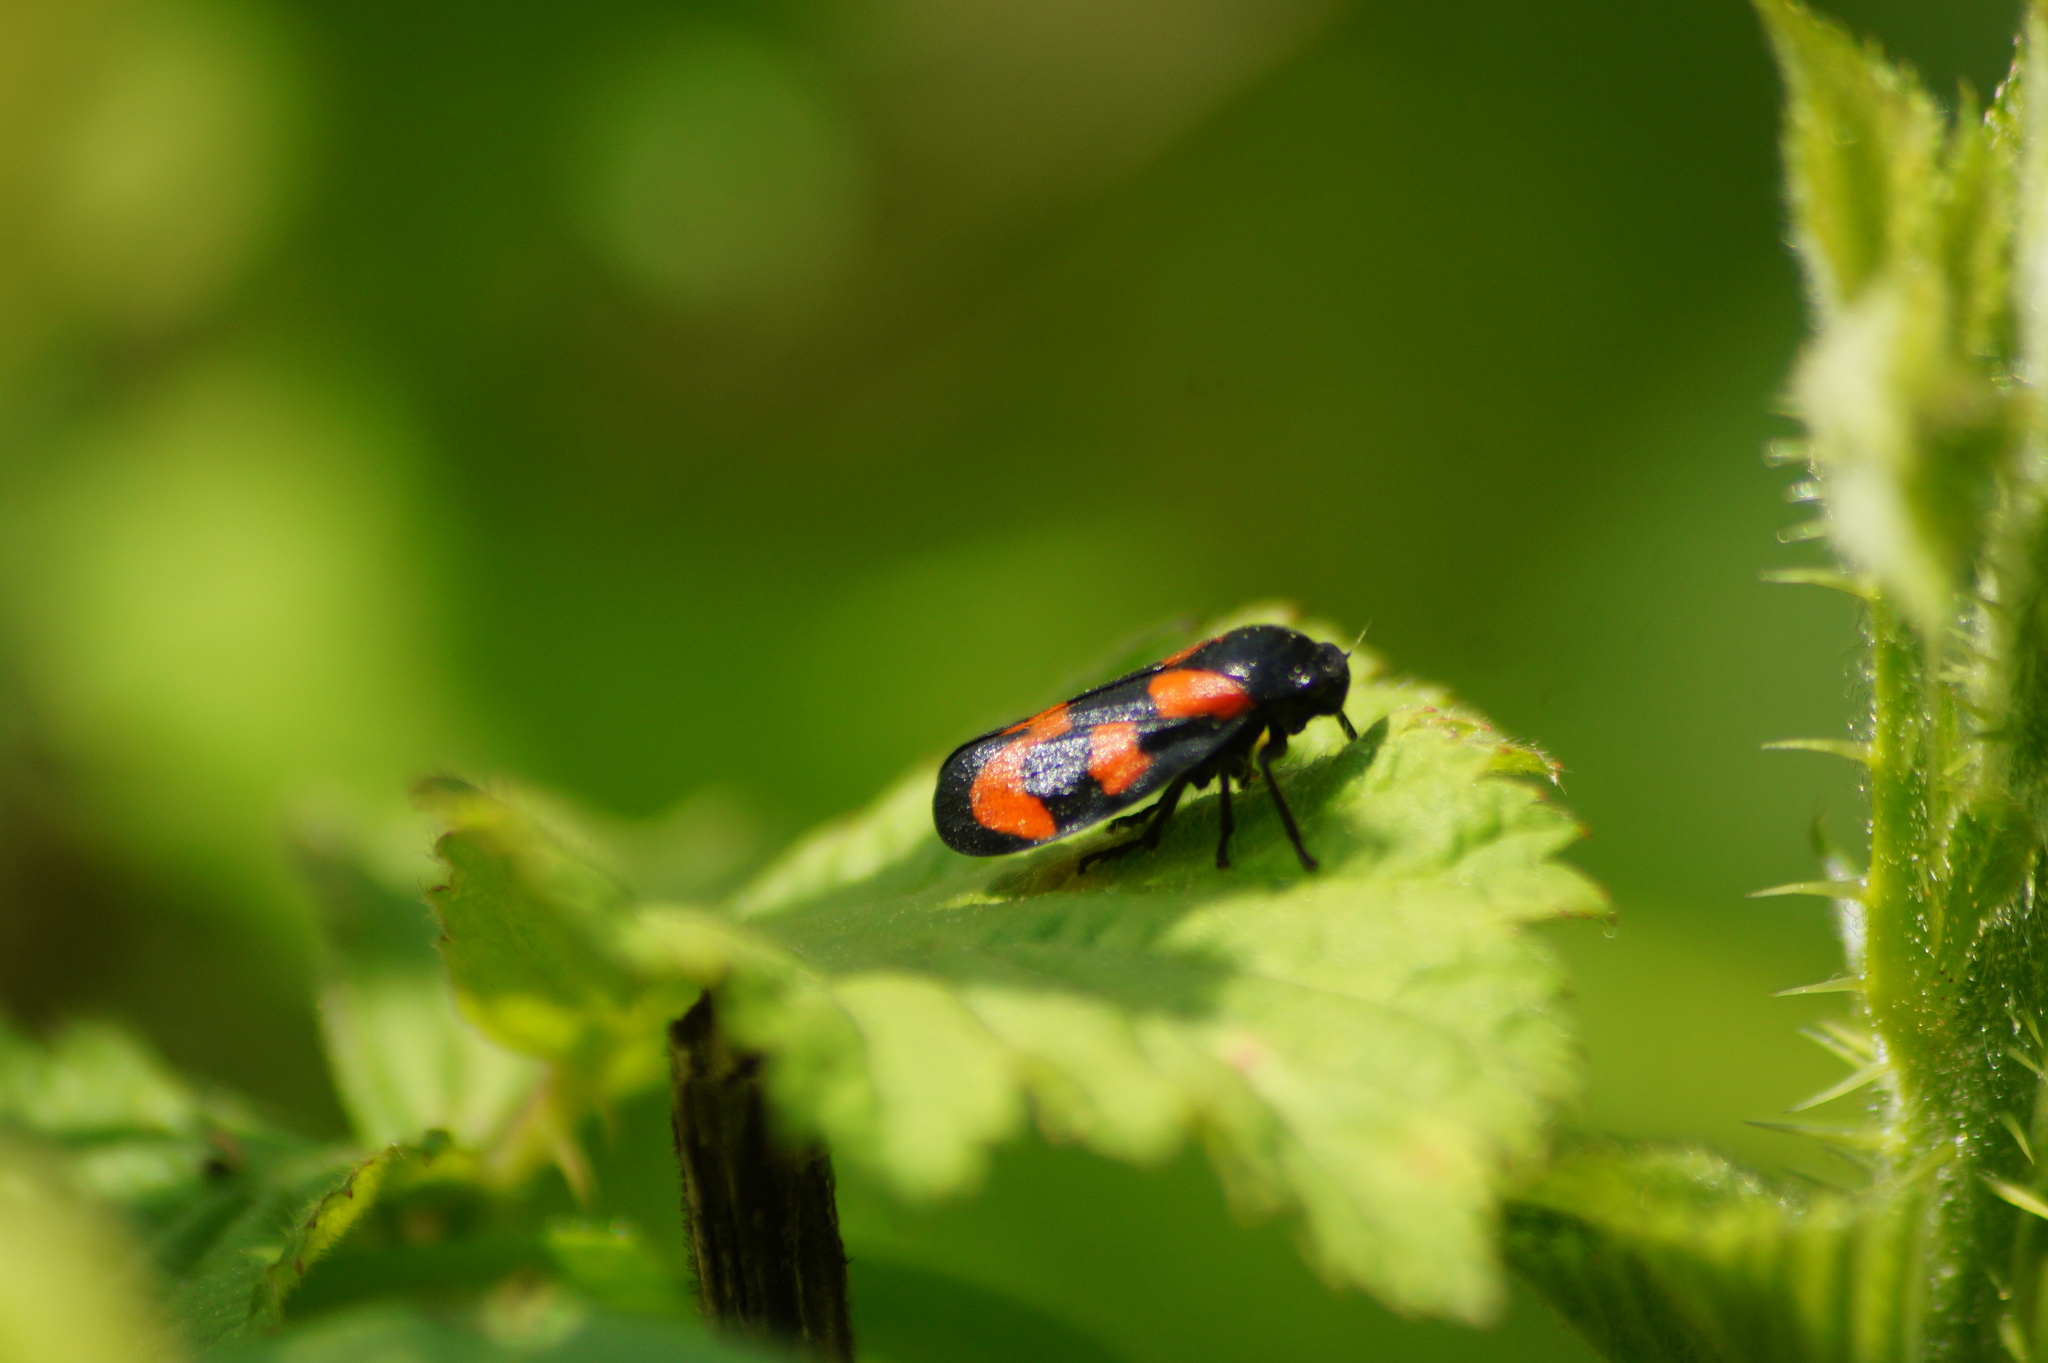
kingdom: Animalia
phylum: Arthropoda
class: Insecta
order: Hemiptera
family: Cercopidae
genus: Cercopis
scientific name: Cercopis vulnerata
